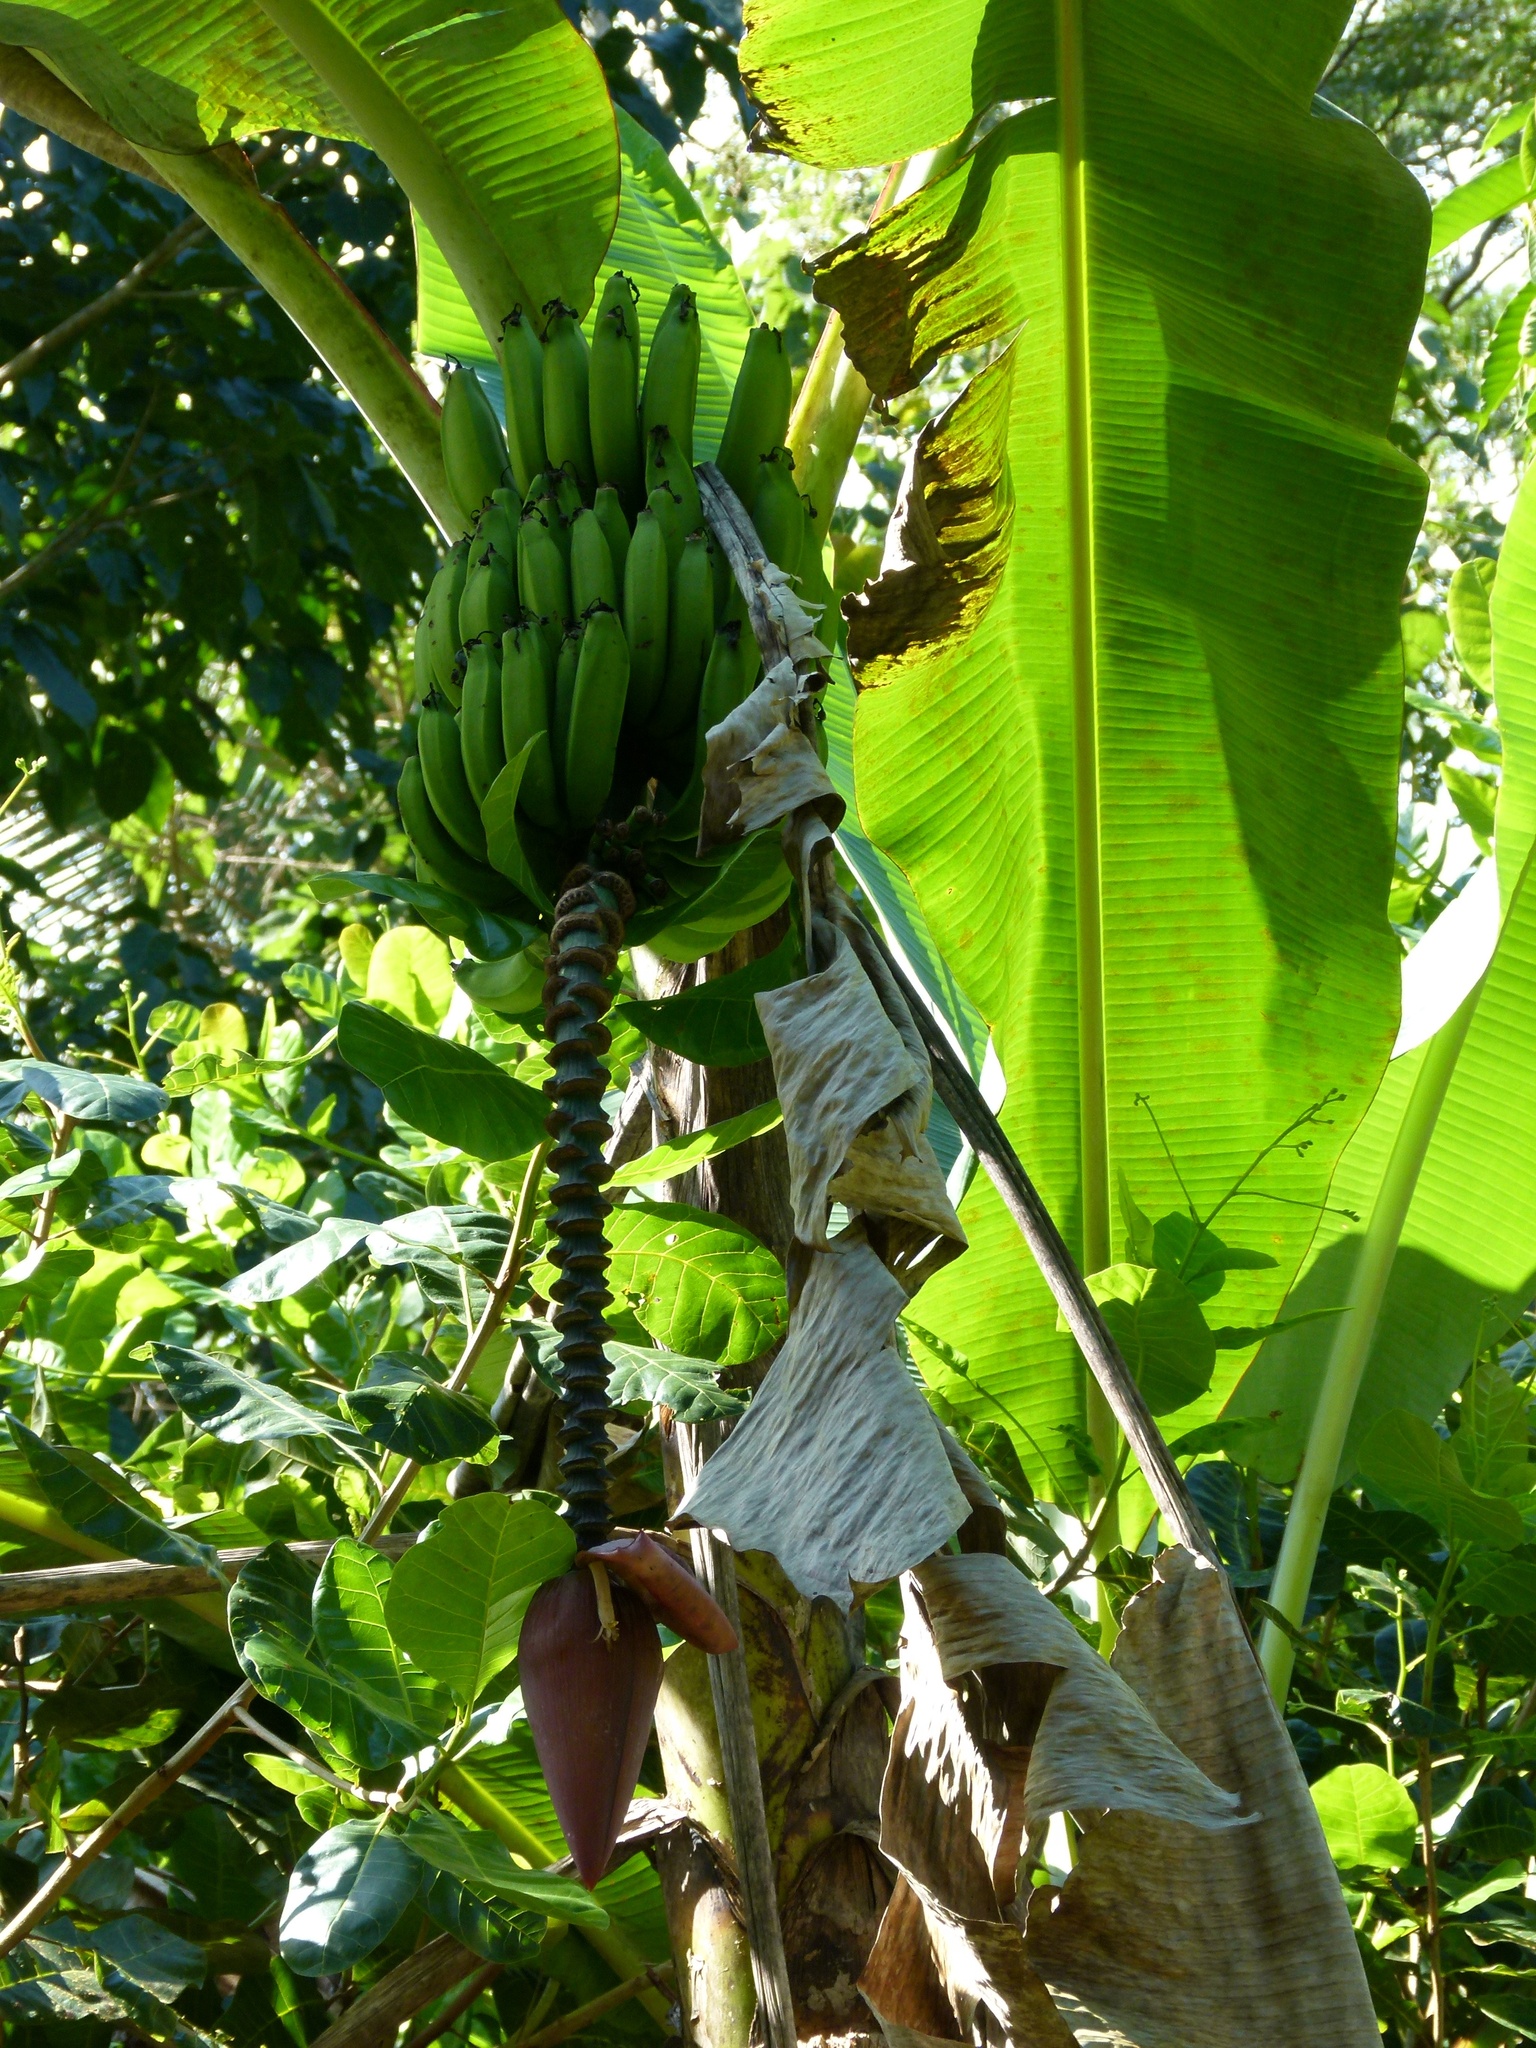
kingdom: Plantae
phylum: Tracheophyta
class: Liliopsida
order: Zingiberales
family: Musaceae
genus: Musa
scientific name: Musa acuminata
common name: Edible banana
